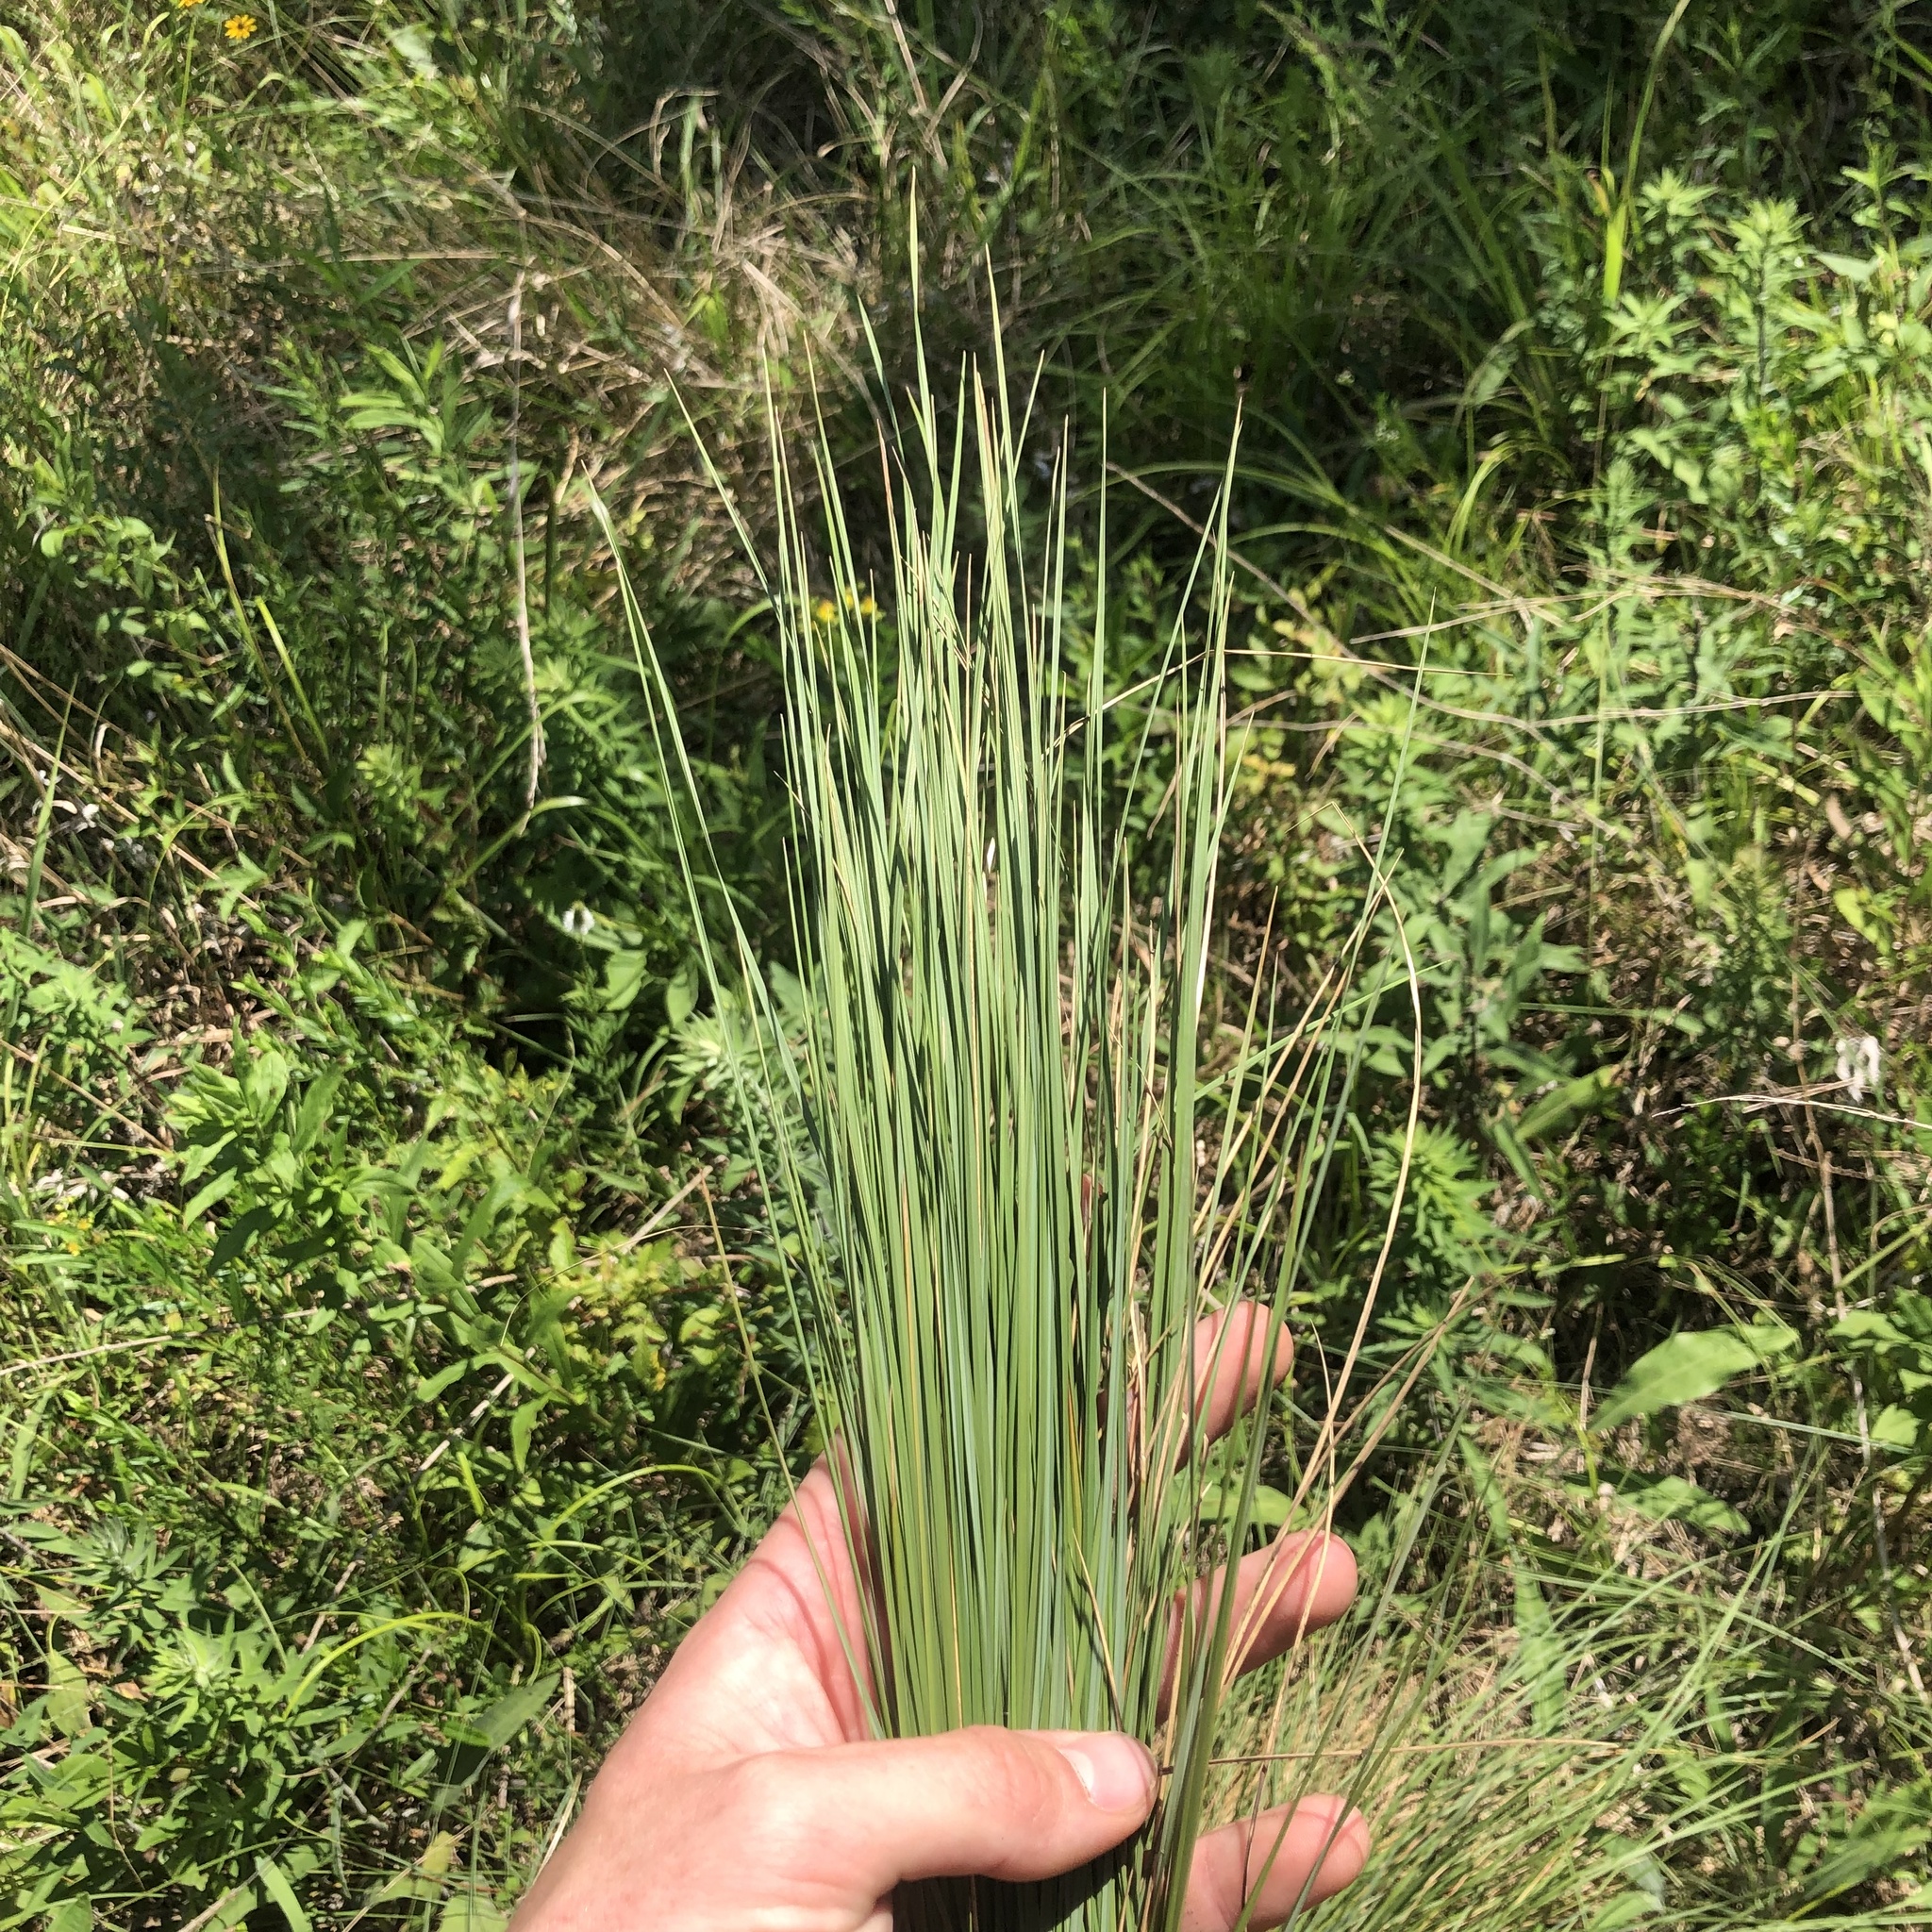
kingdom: Plantae
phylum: Tracheophyta
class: Liliopsida
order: Poales
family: Poaceae
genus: Muhlenbergia
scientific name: Muhlenbergia capillaris
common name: Purple grass
